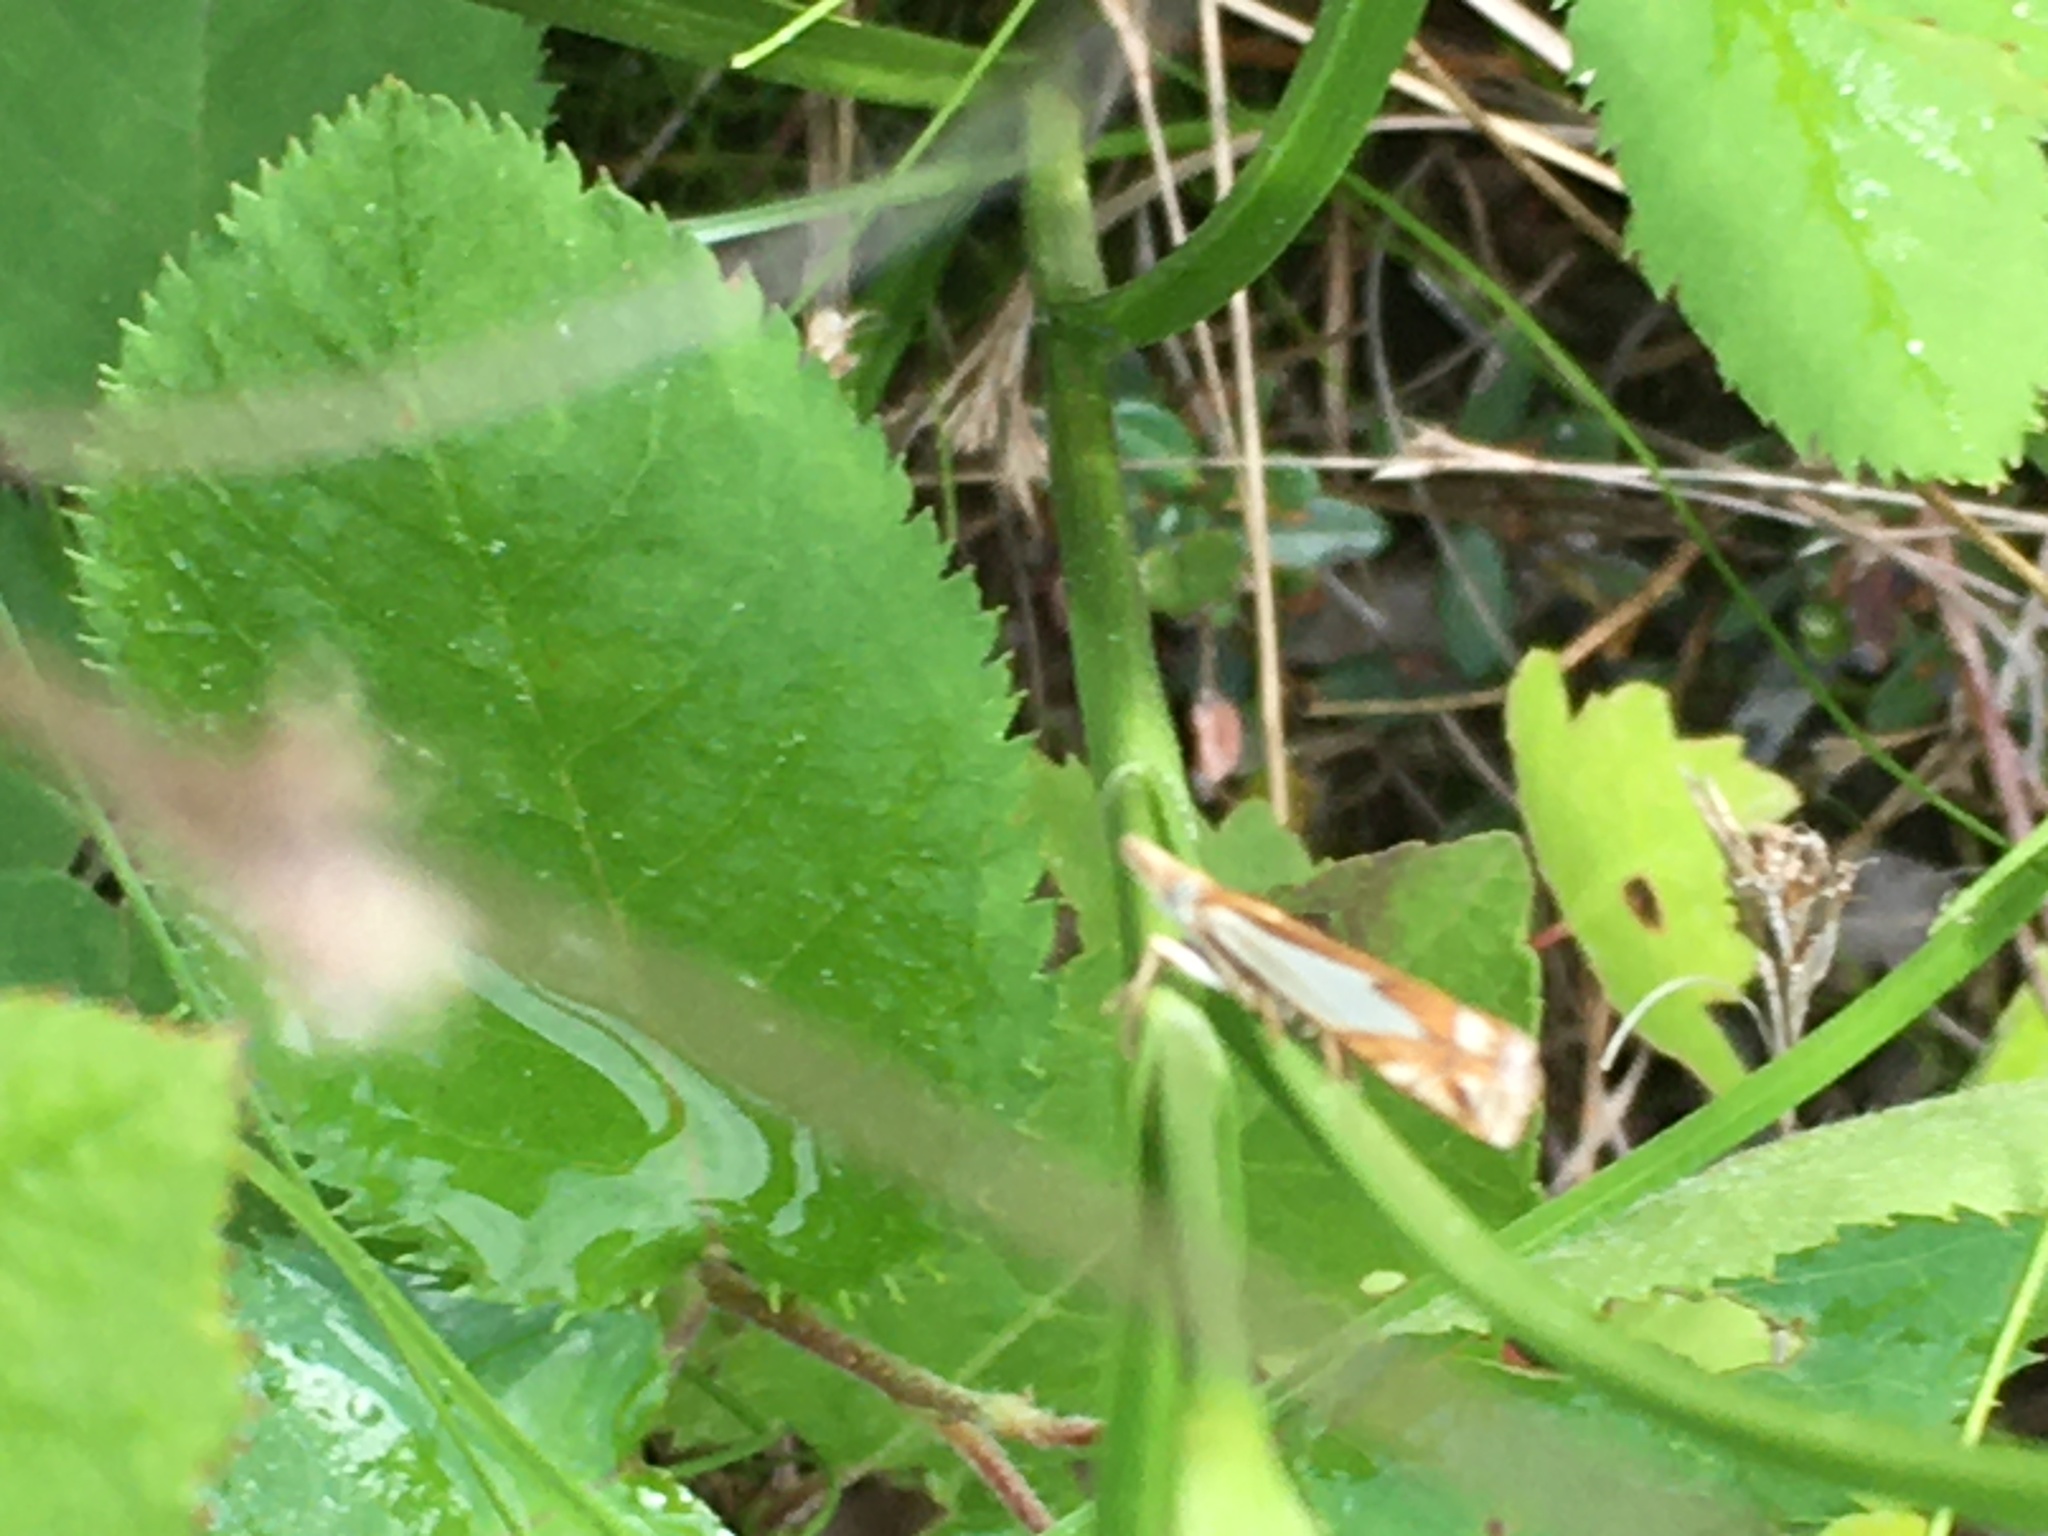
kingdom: Animalia
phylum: Arthropoda
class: Insecta
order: Lepidoptera
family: Crambidae
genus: Crambus
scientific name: Crambus bidens
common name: Forked grass-veneer
